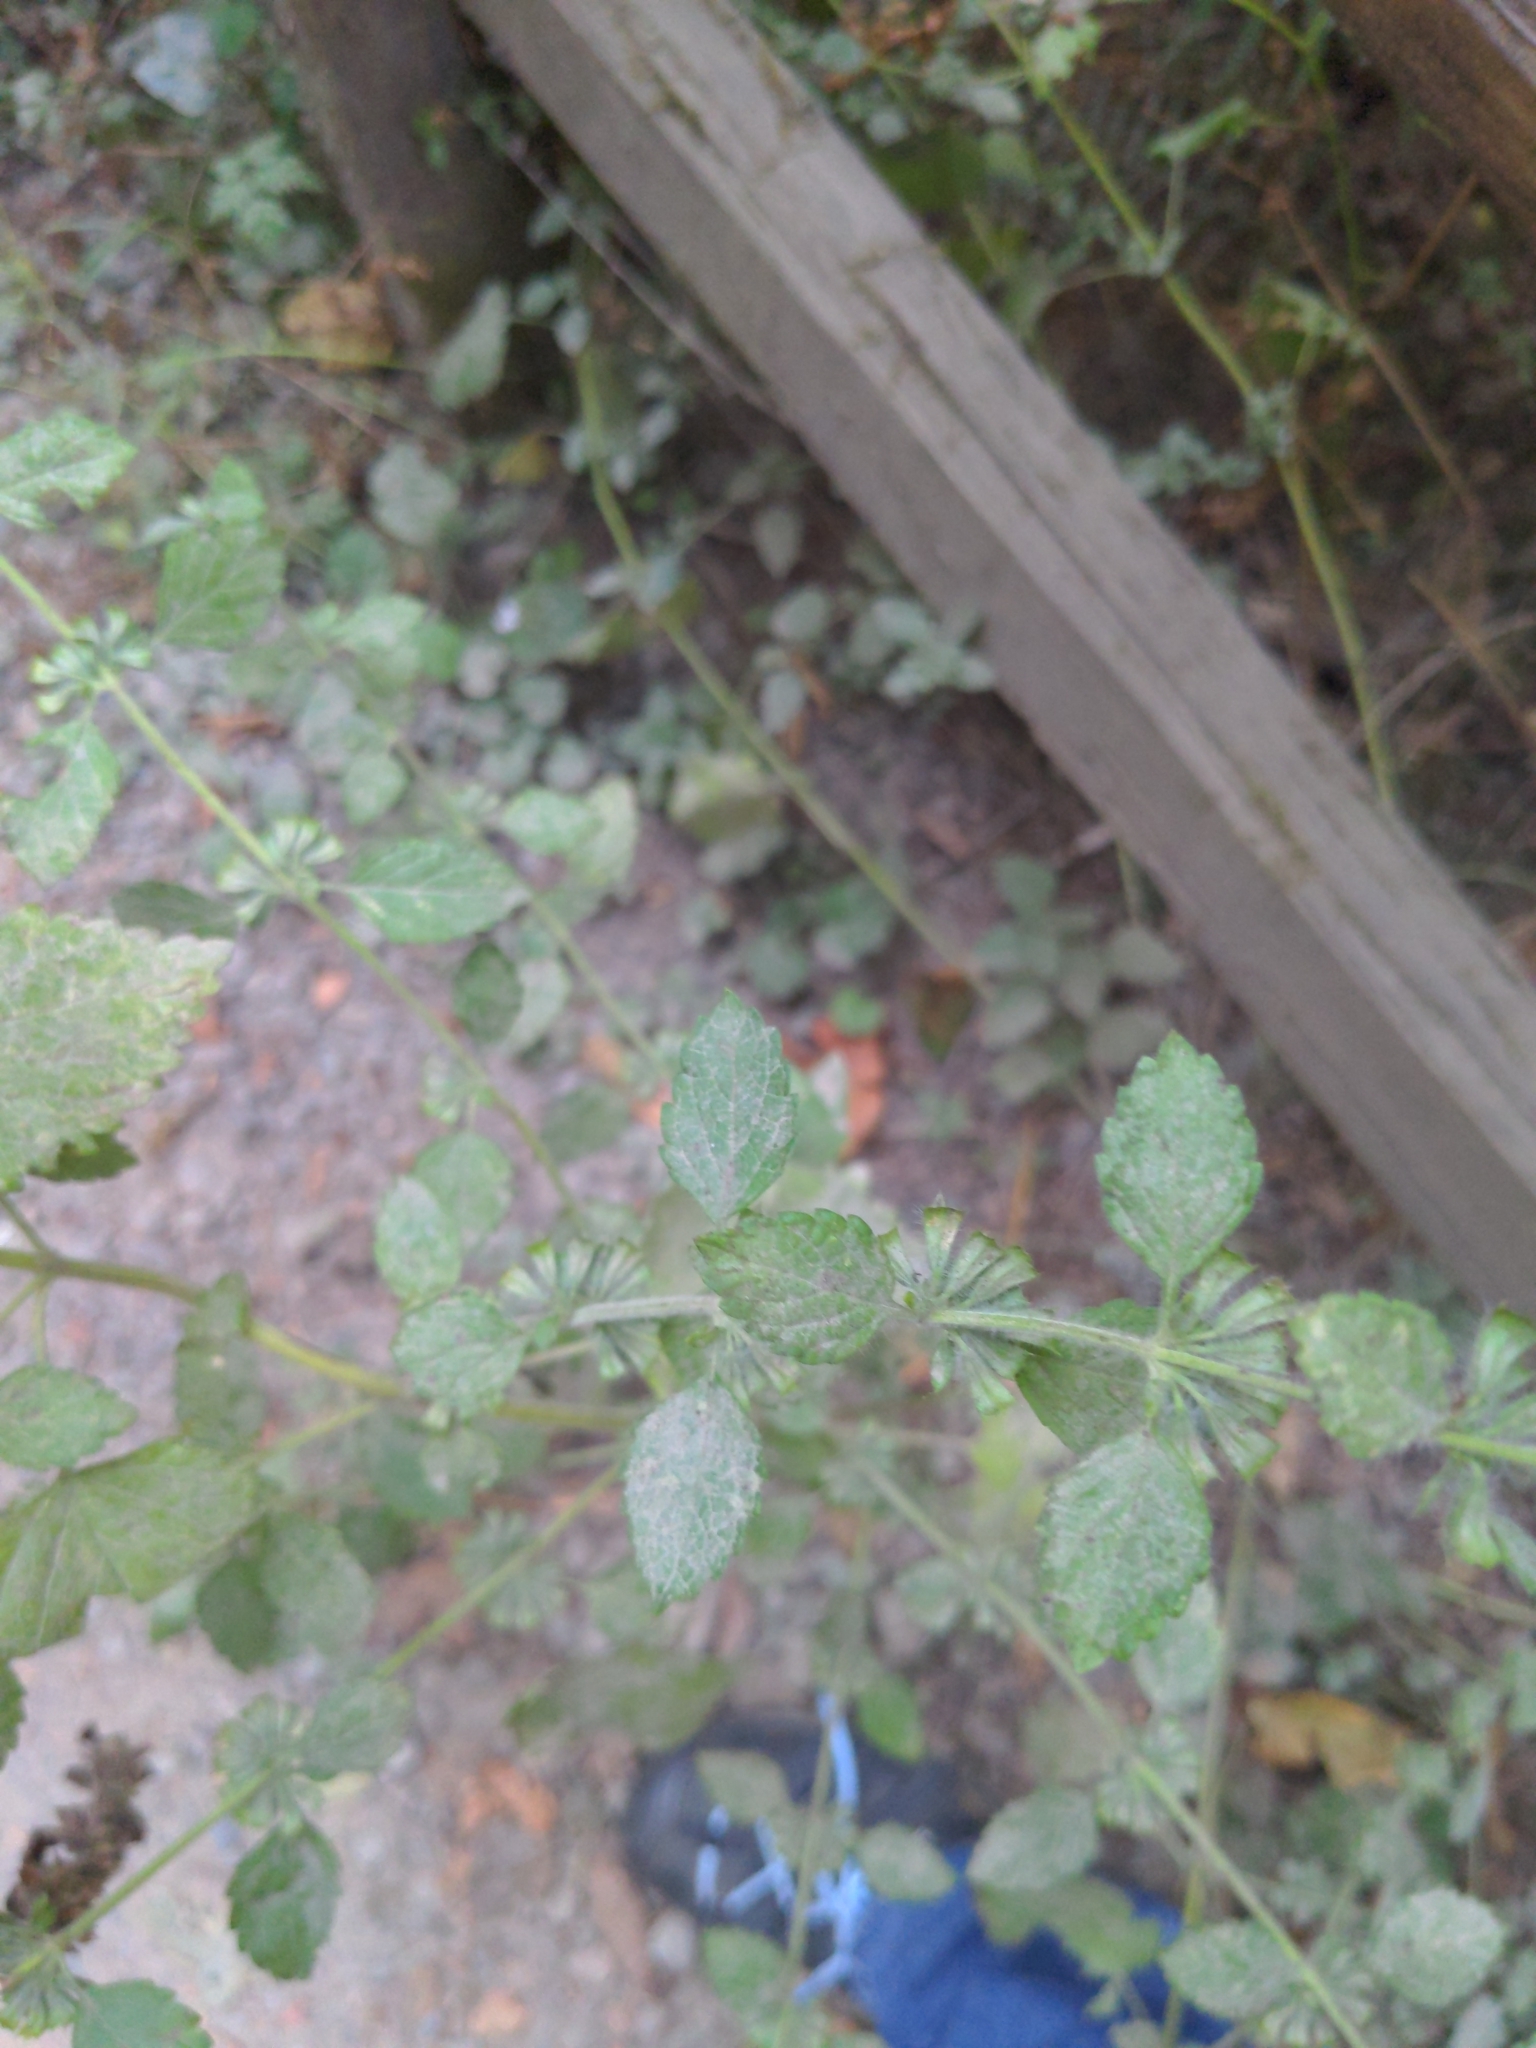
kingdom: Plantae
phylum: Tracheophyta
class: Magnoliopsida
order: Lamiales
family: Lamiaceae
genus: Melissa
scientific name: Melissa officinalis
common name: Balm
